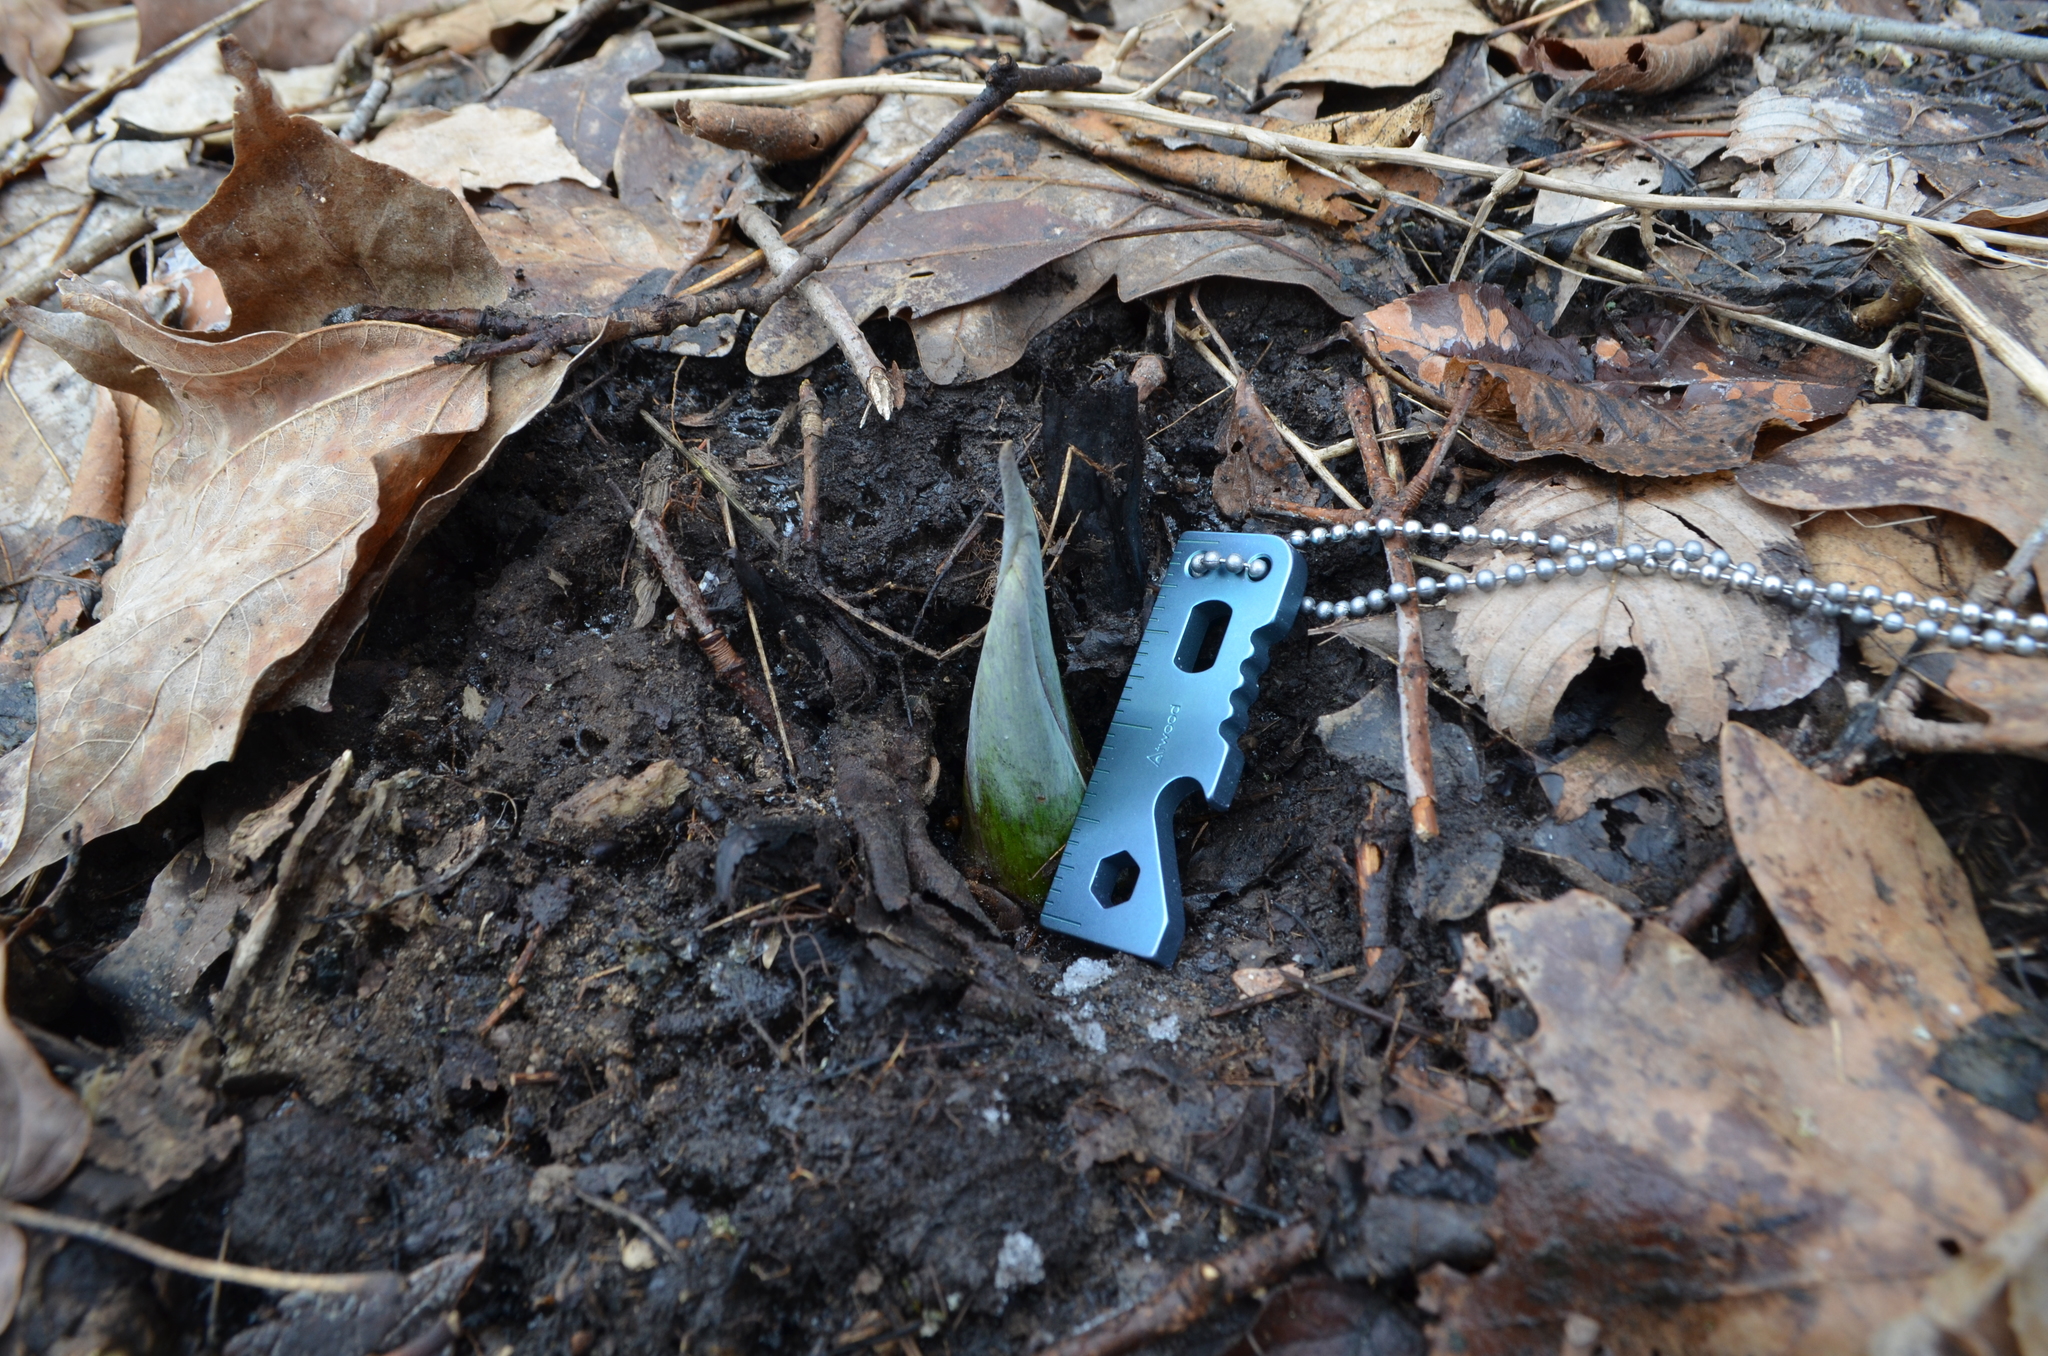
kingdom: Plantae
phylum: Tracheophyta
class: Liliopsida
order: Alismatales
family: Araceae
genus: Symplocarpus
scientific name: Symplocarpus foetidus
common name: Eastern skunk cabbage
